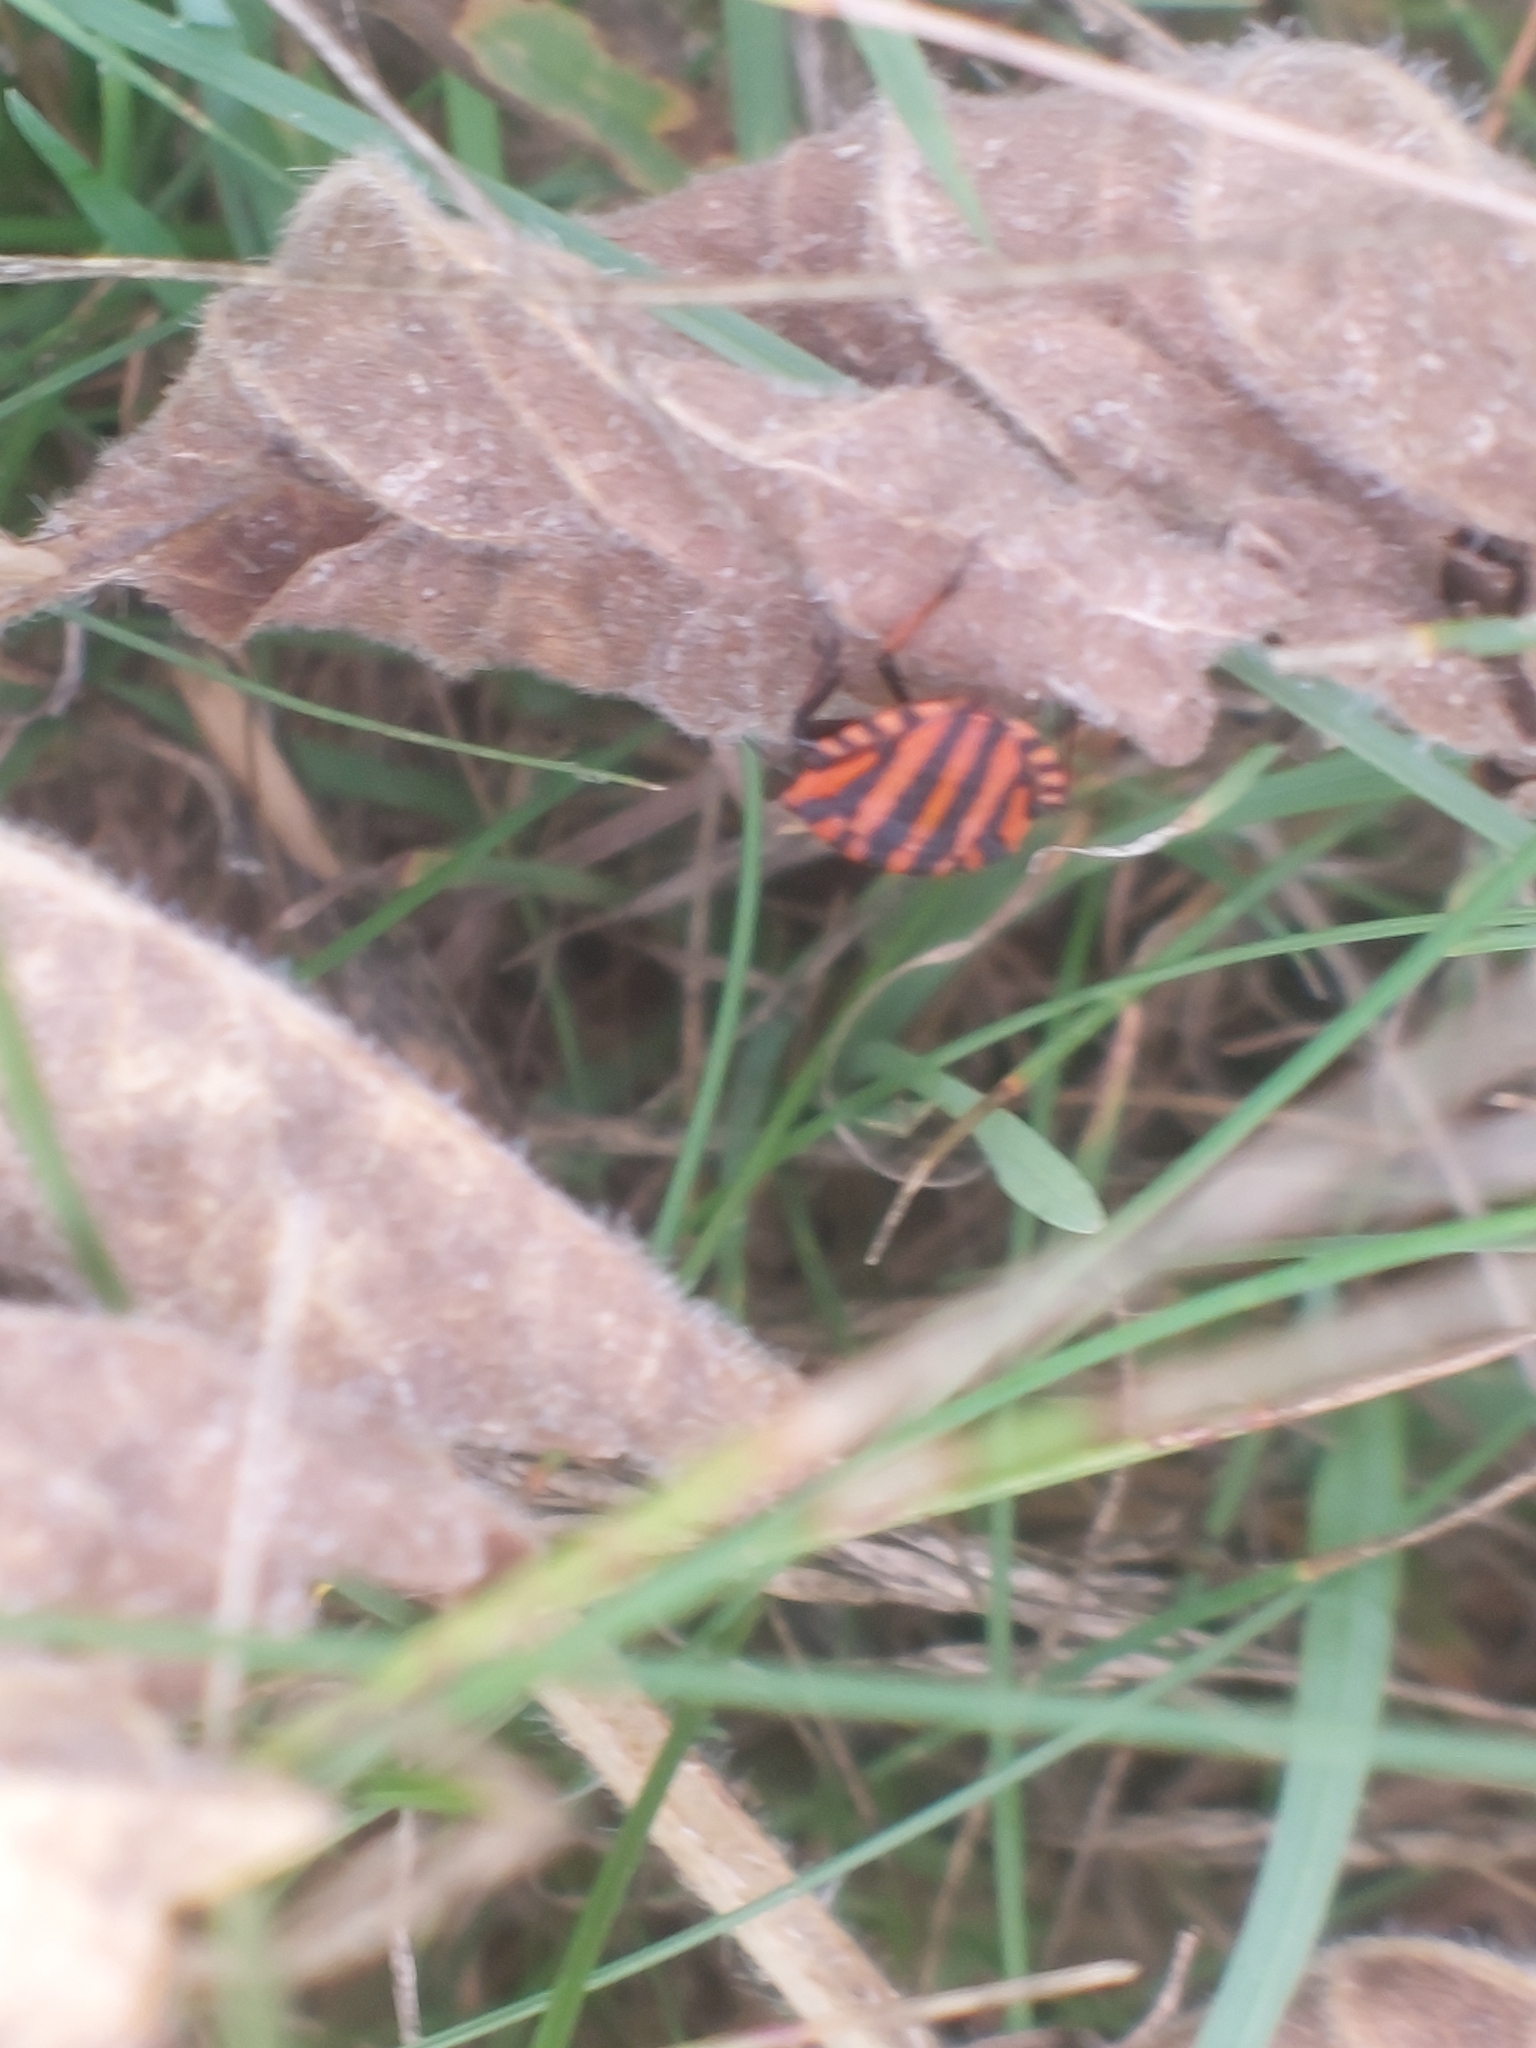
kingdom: Animalia
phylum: Arthropoda
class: Insecta
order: Hemiptera
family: Pentatomidae
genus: Graphosoma
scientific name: Graphosoma italicum
